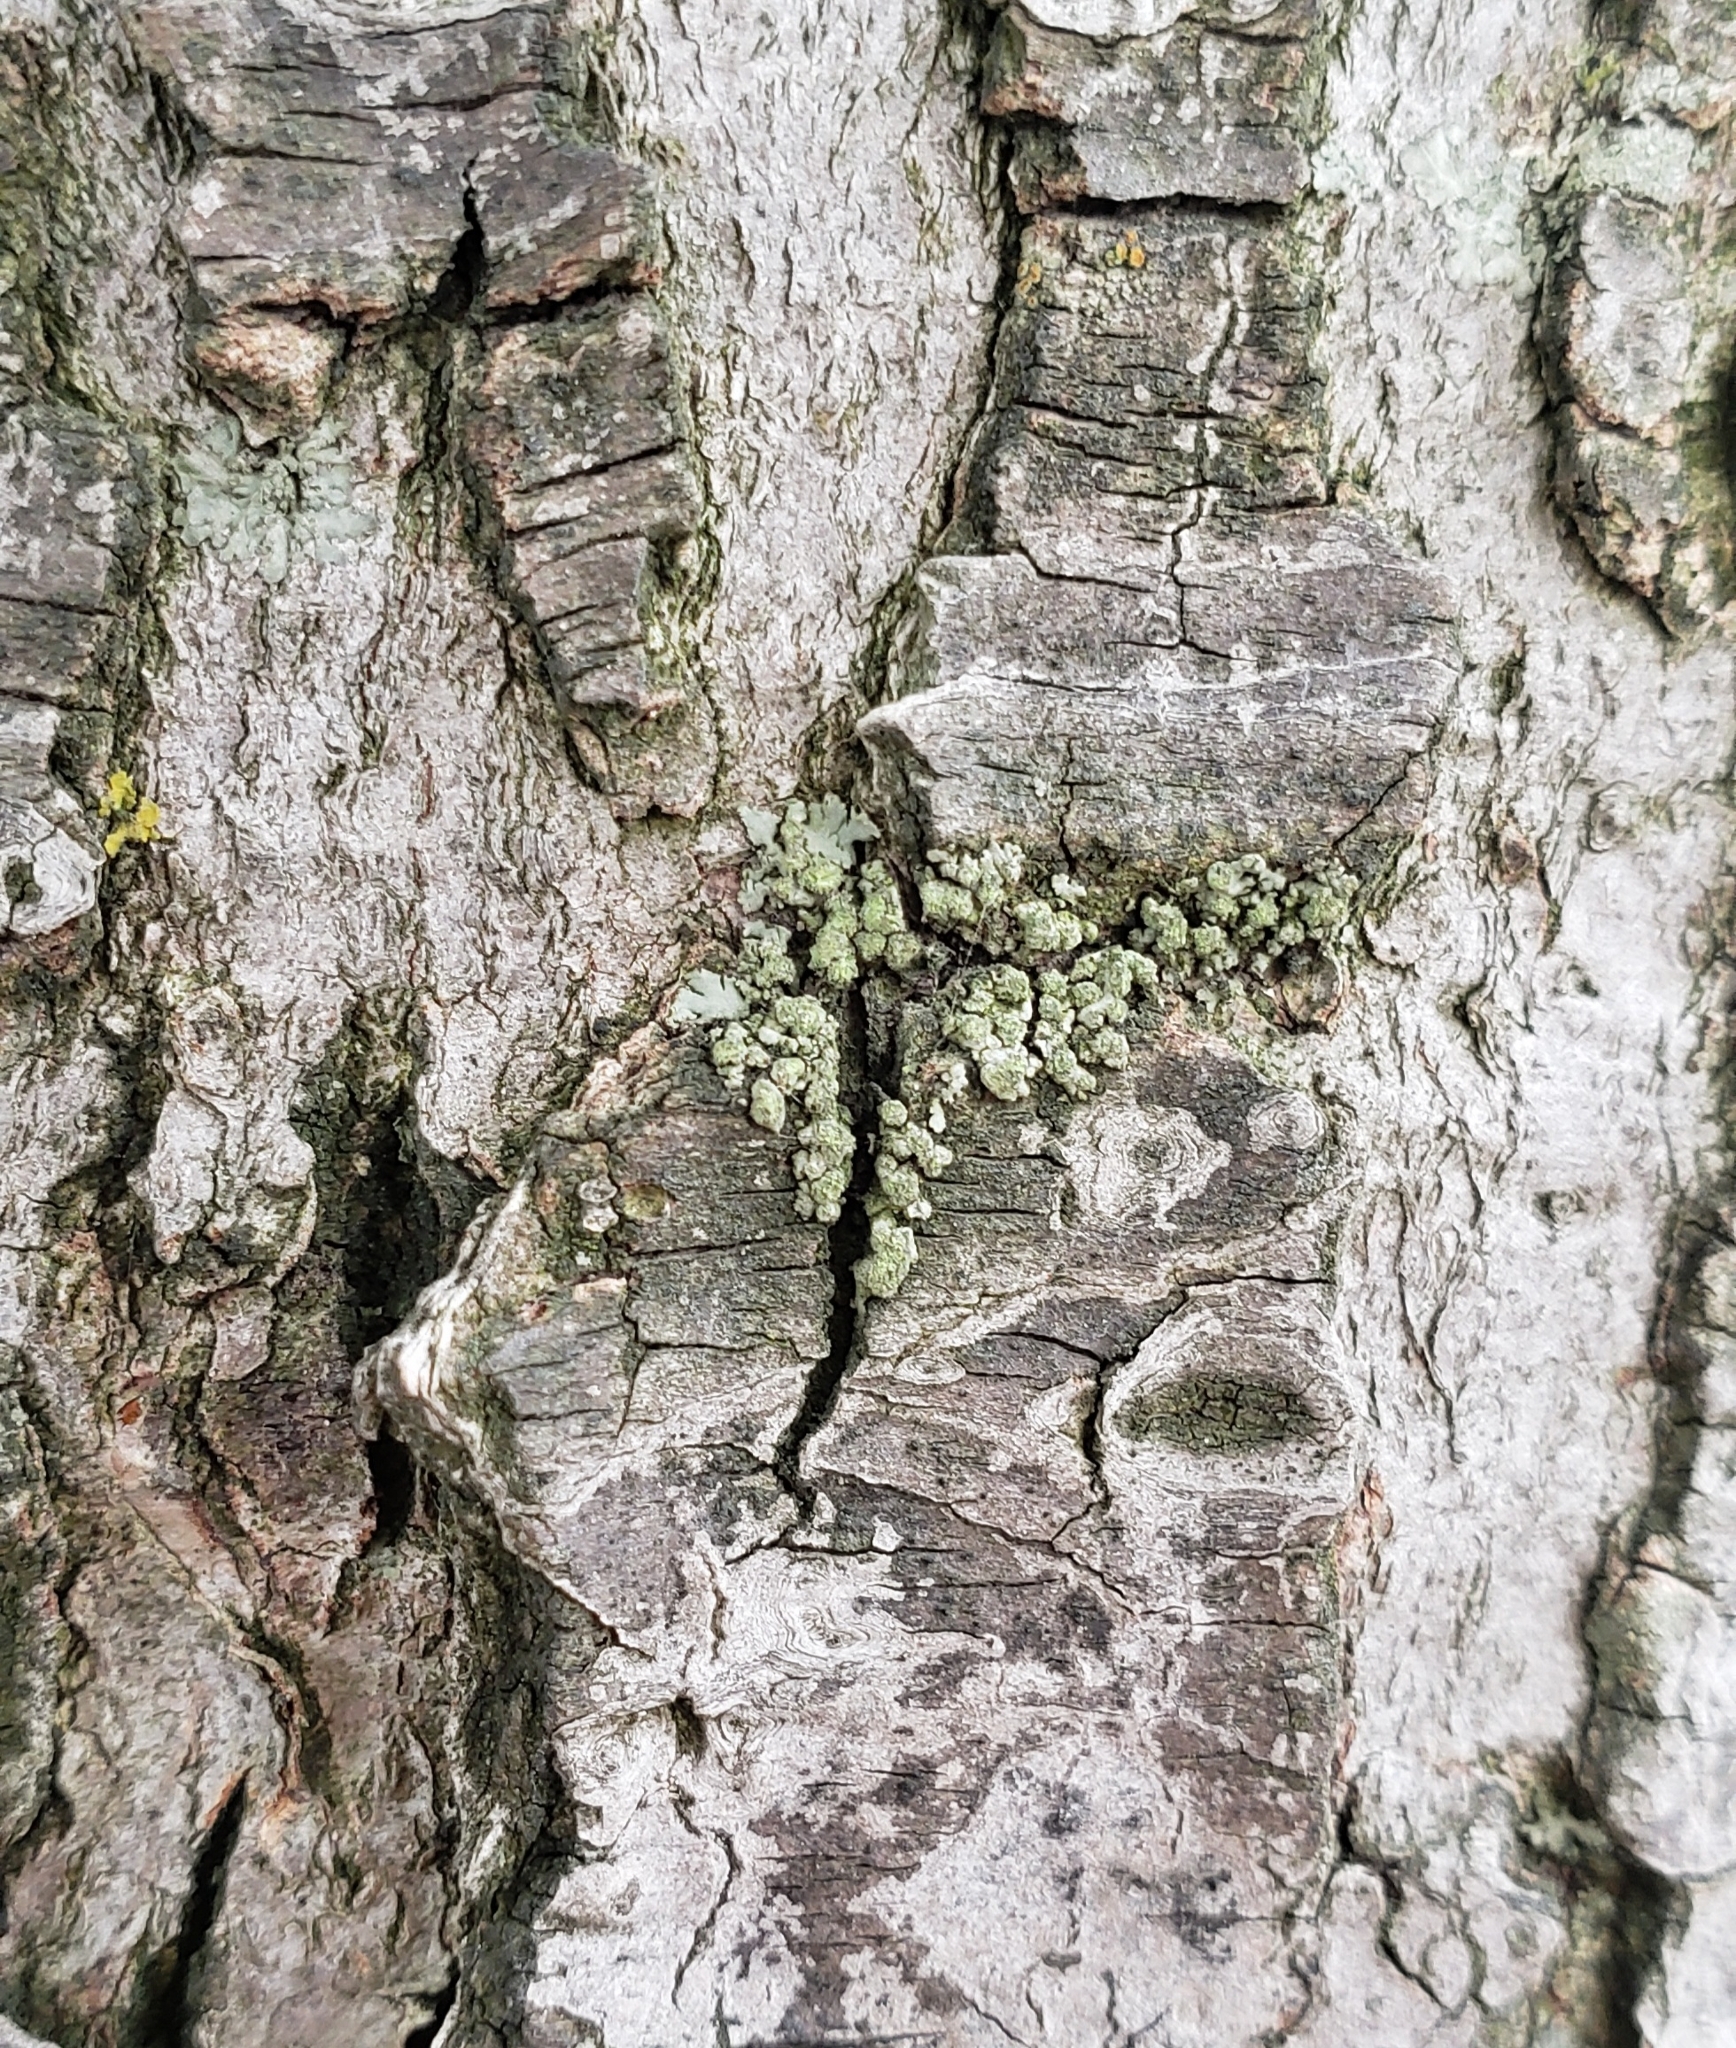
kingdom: Fungi
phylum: Ascomycota
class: Lecanoromycetes
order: Caliciales
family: Physciaceae
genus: Physciella
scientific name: Physciella chloantha
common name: Cryptic rosette lichen
